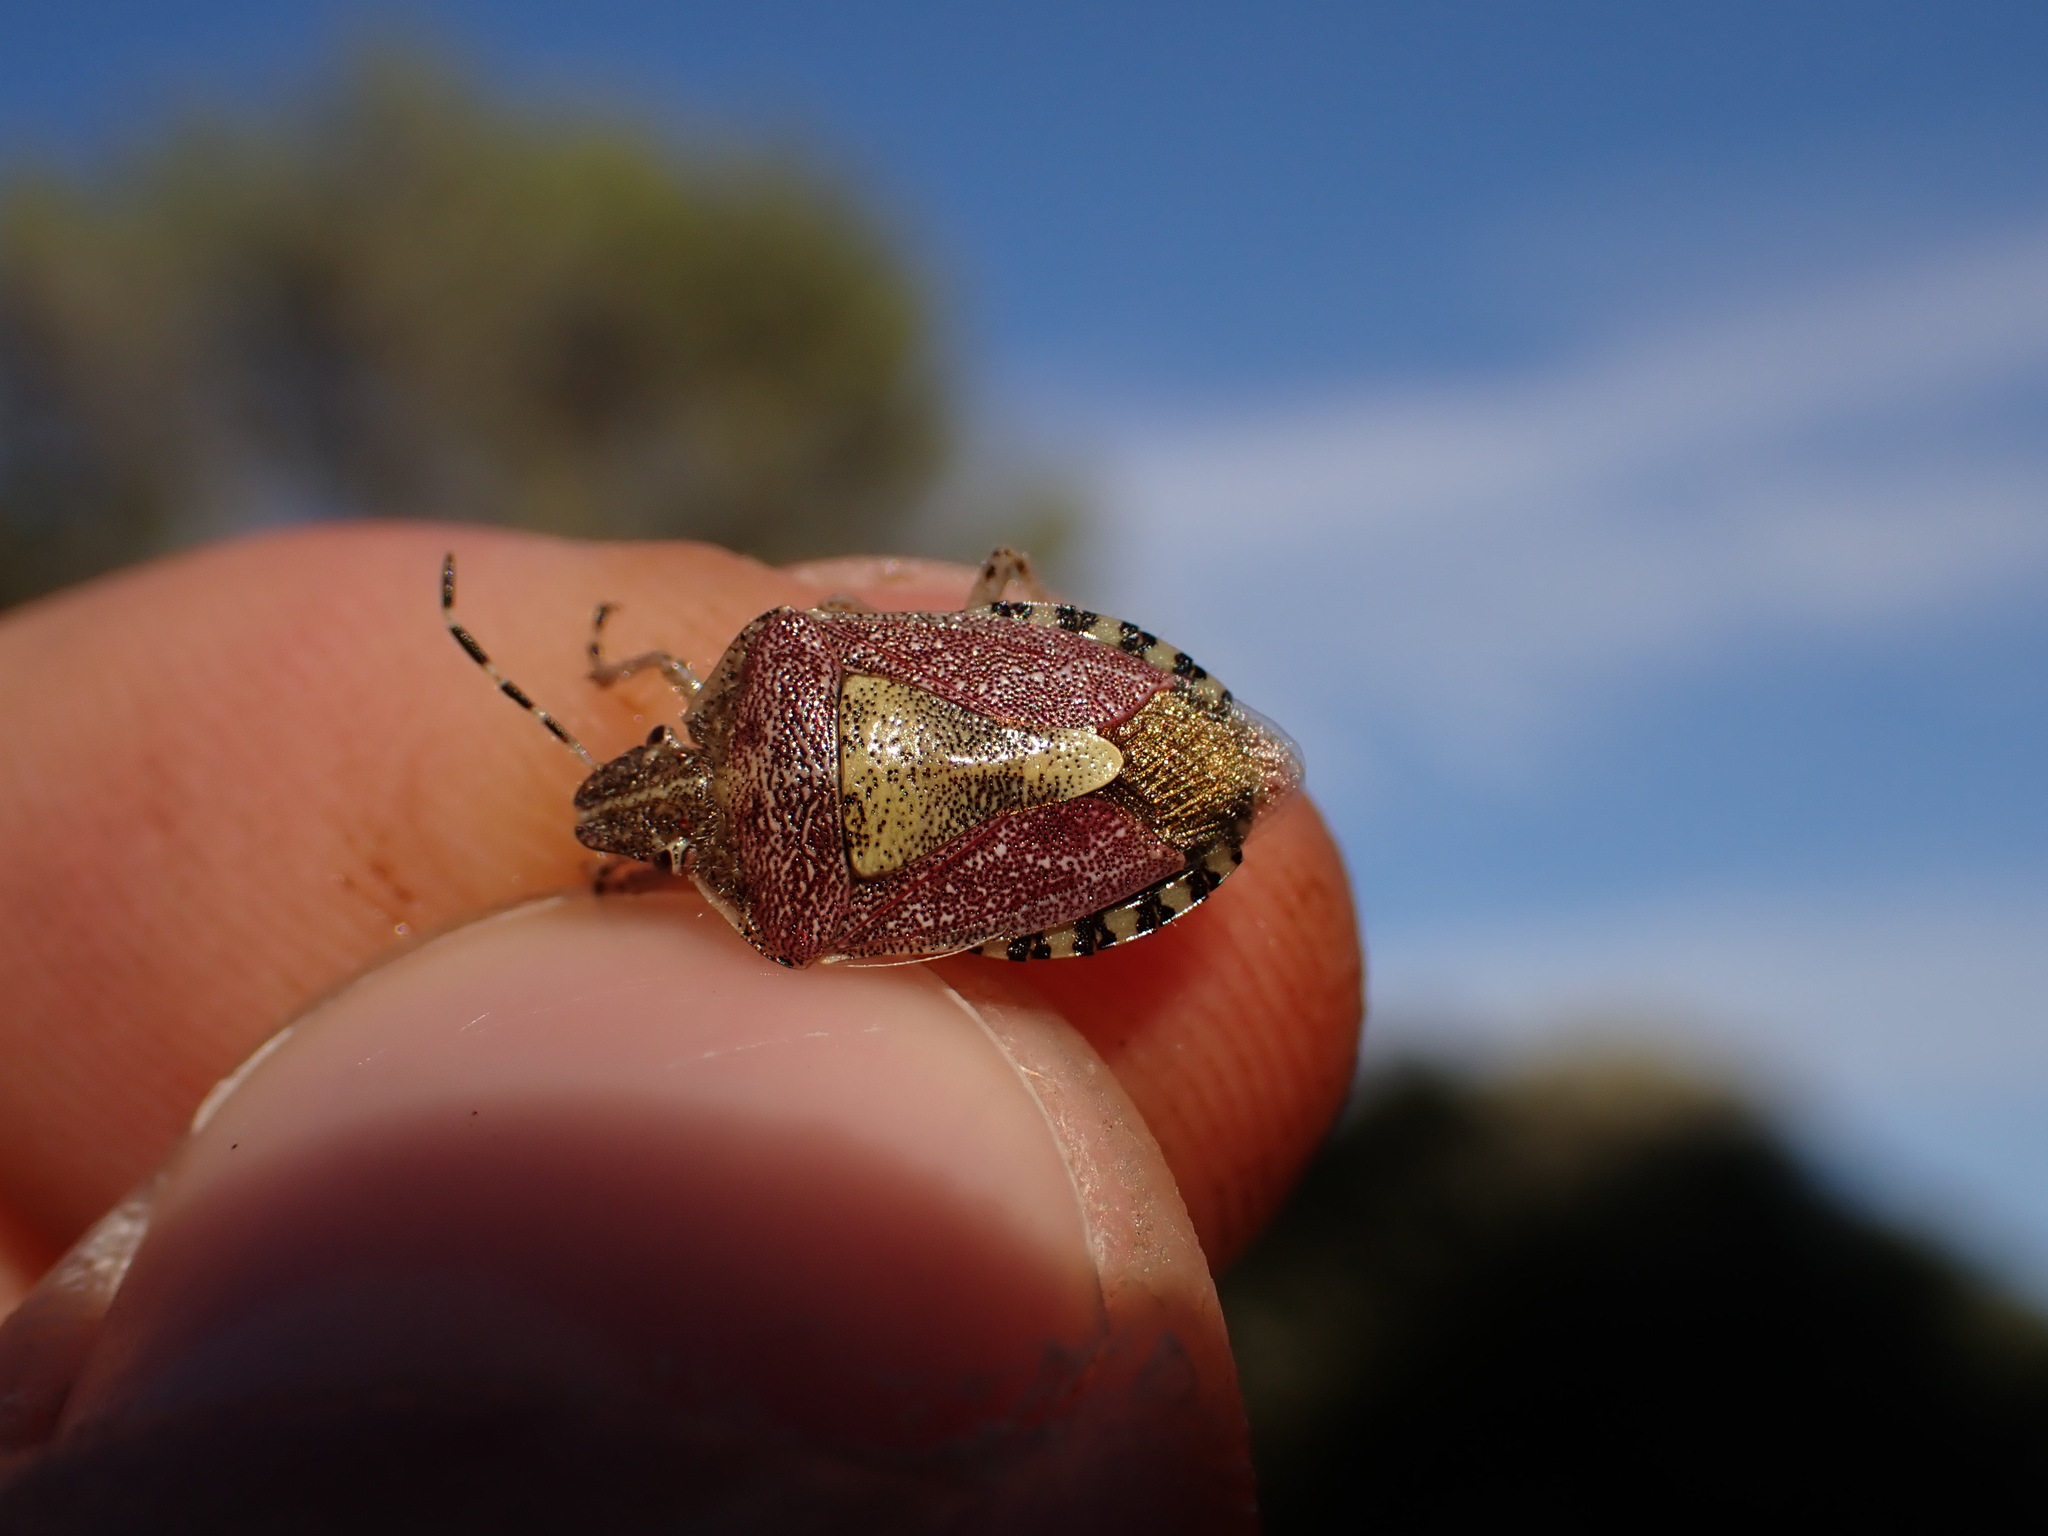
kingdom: Animalia
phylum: Arthropoda
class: Insecta
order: Hemiptera
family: Pentatomidae
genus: Dolycoris
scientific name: Dolycoris baccarum
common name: Sloe bug
